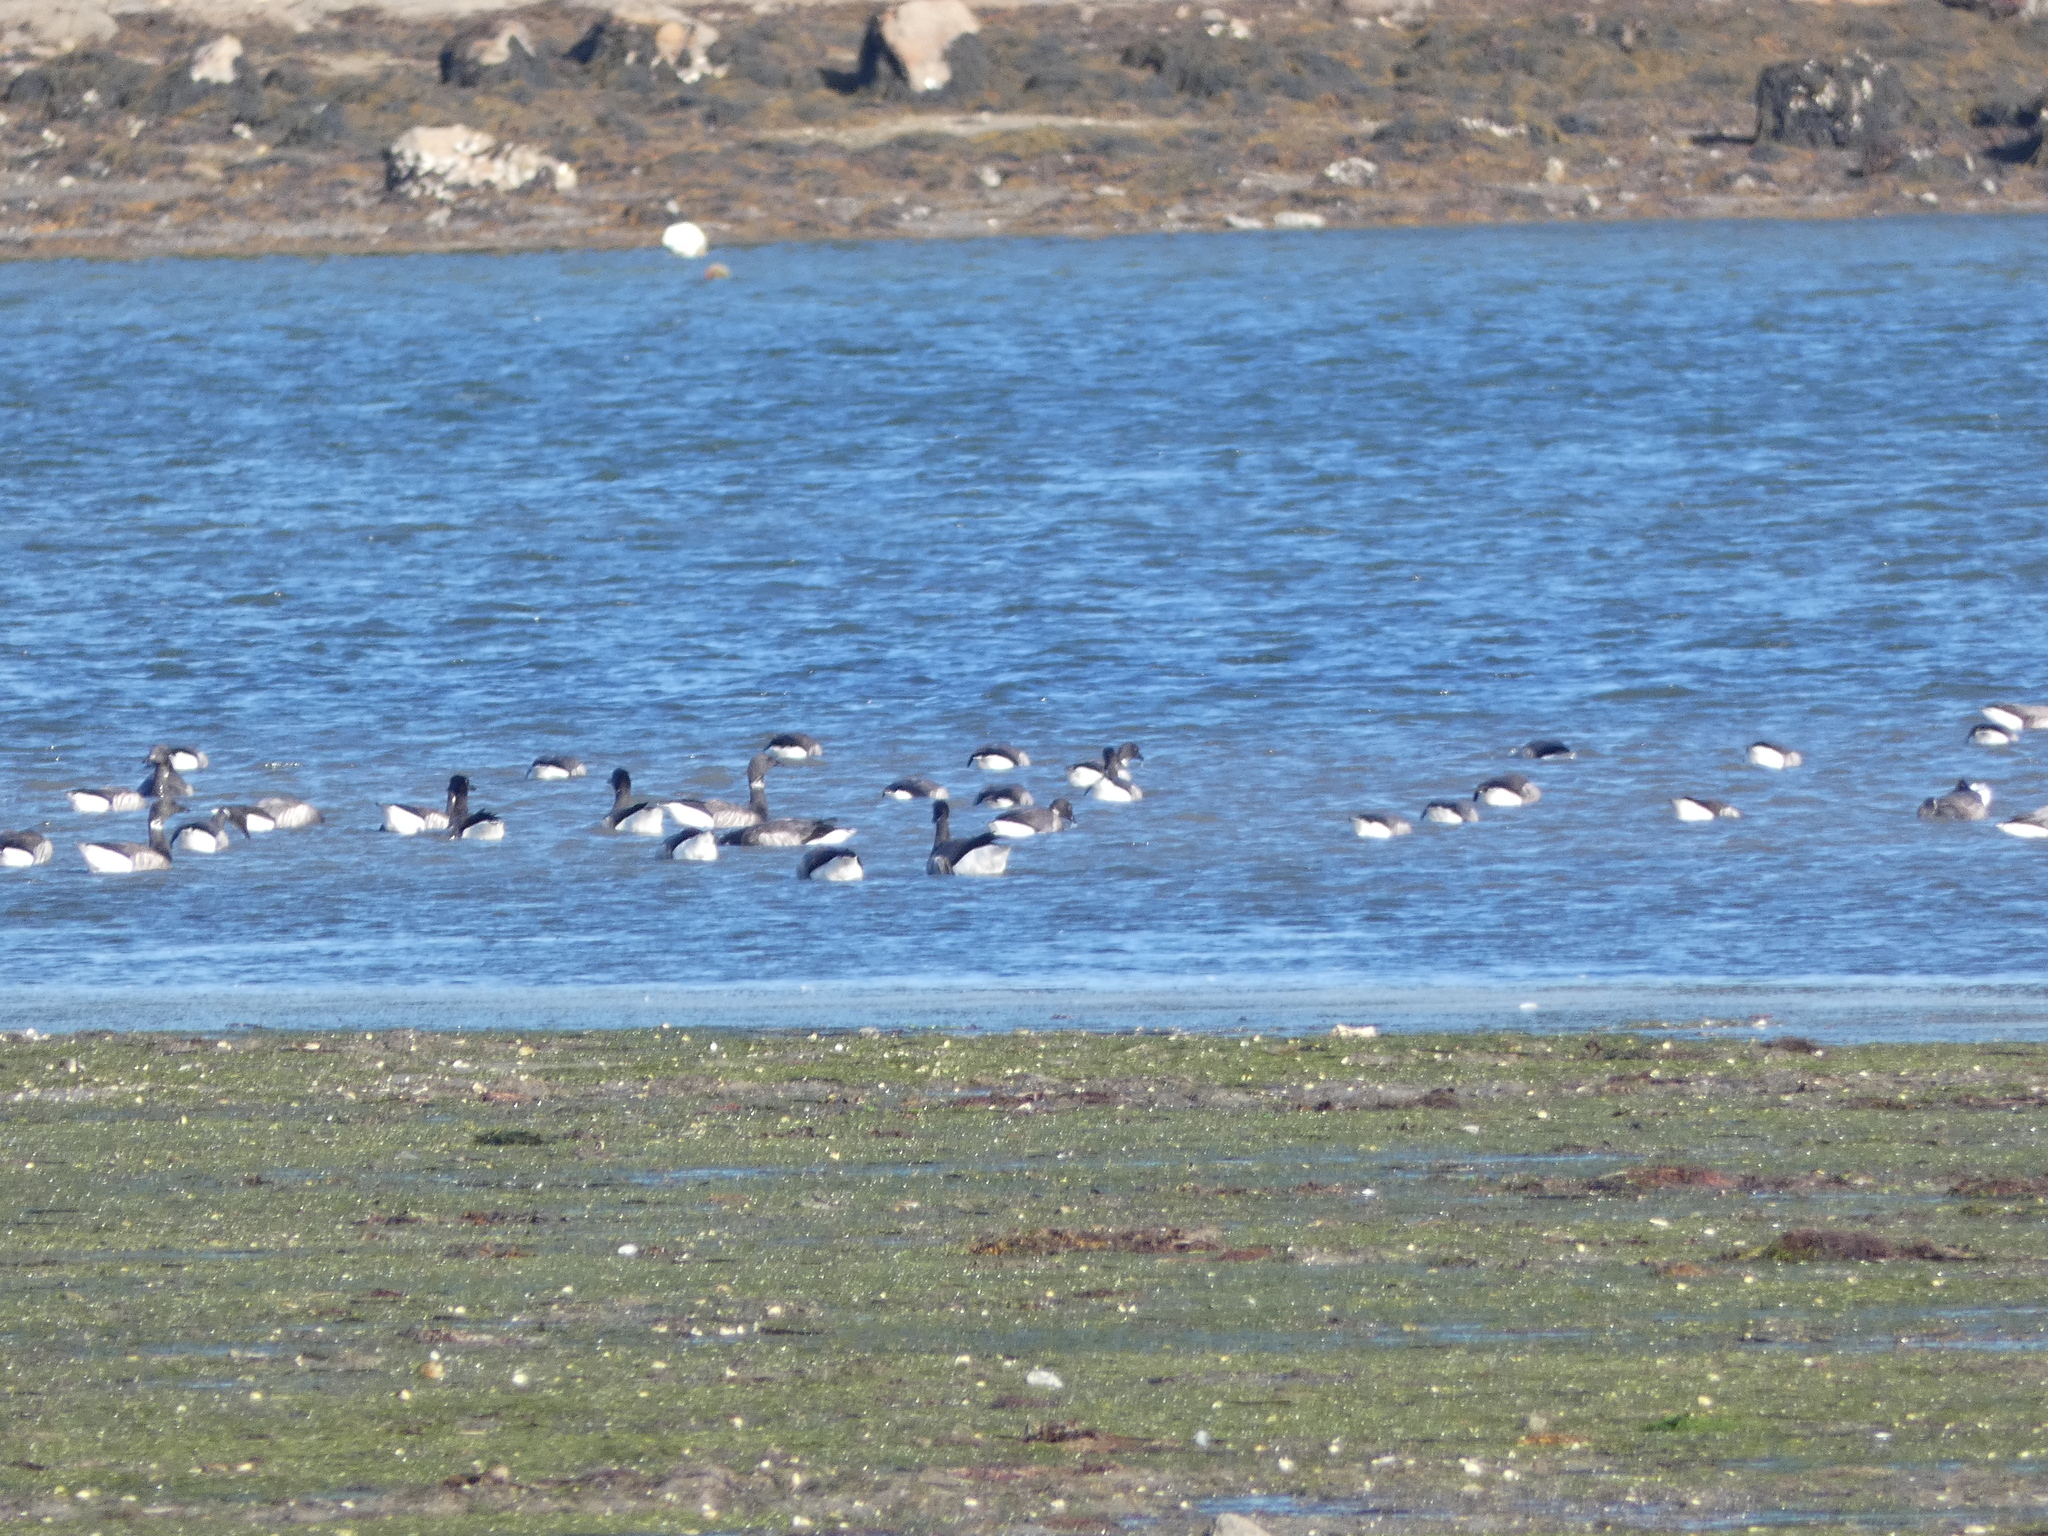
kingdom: Animalia
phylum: Chordata
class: Aves
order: Anseriformes
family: Anatidae
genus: Branta
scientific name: Branta bernicla
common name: Brant goose
